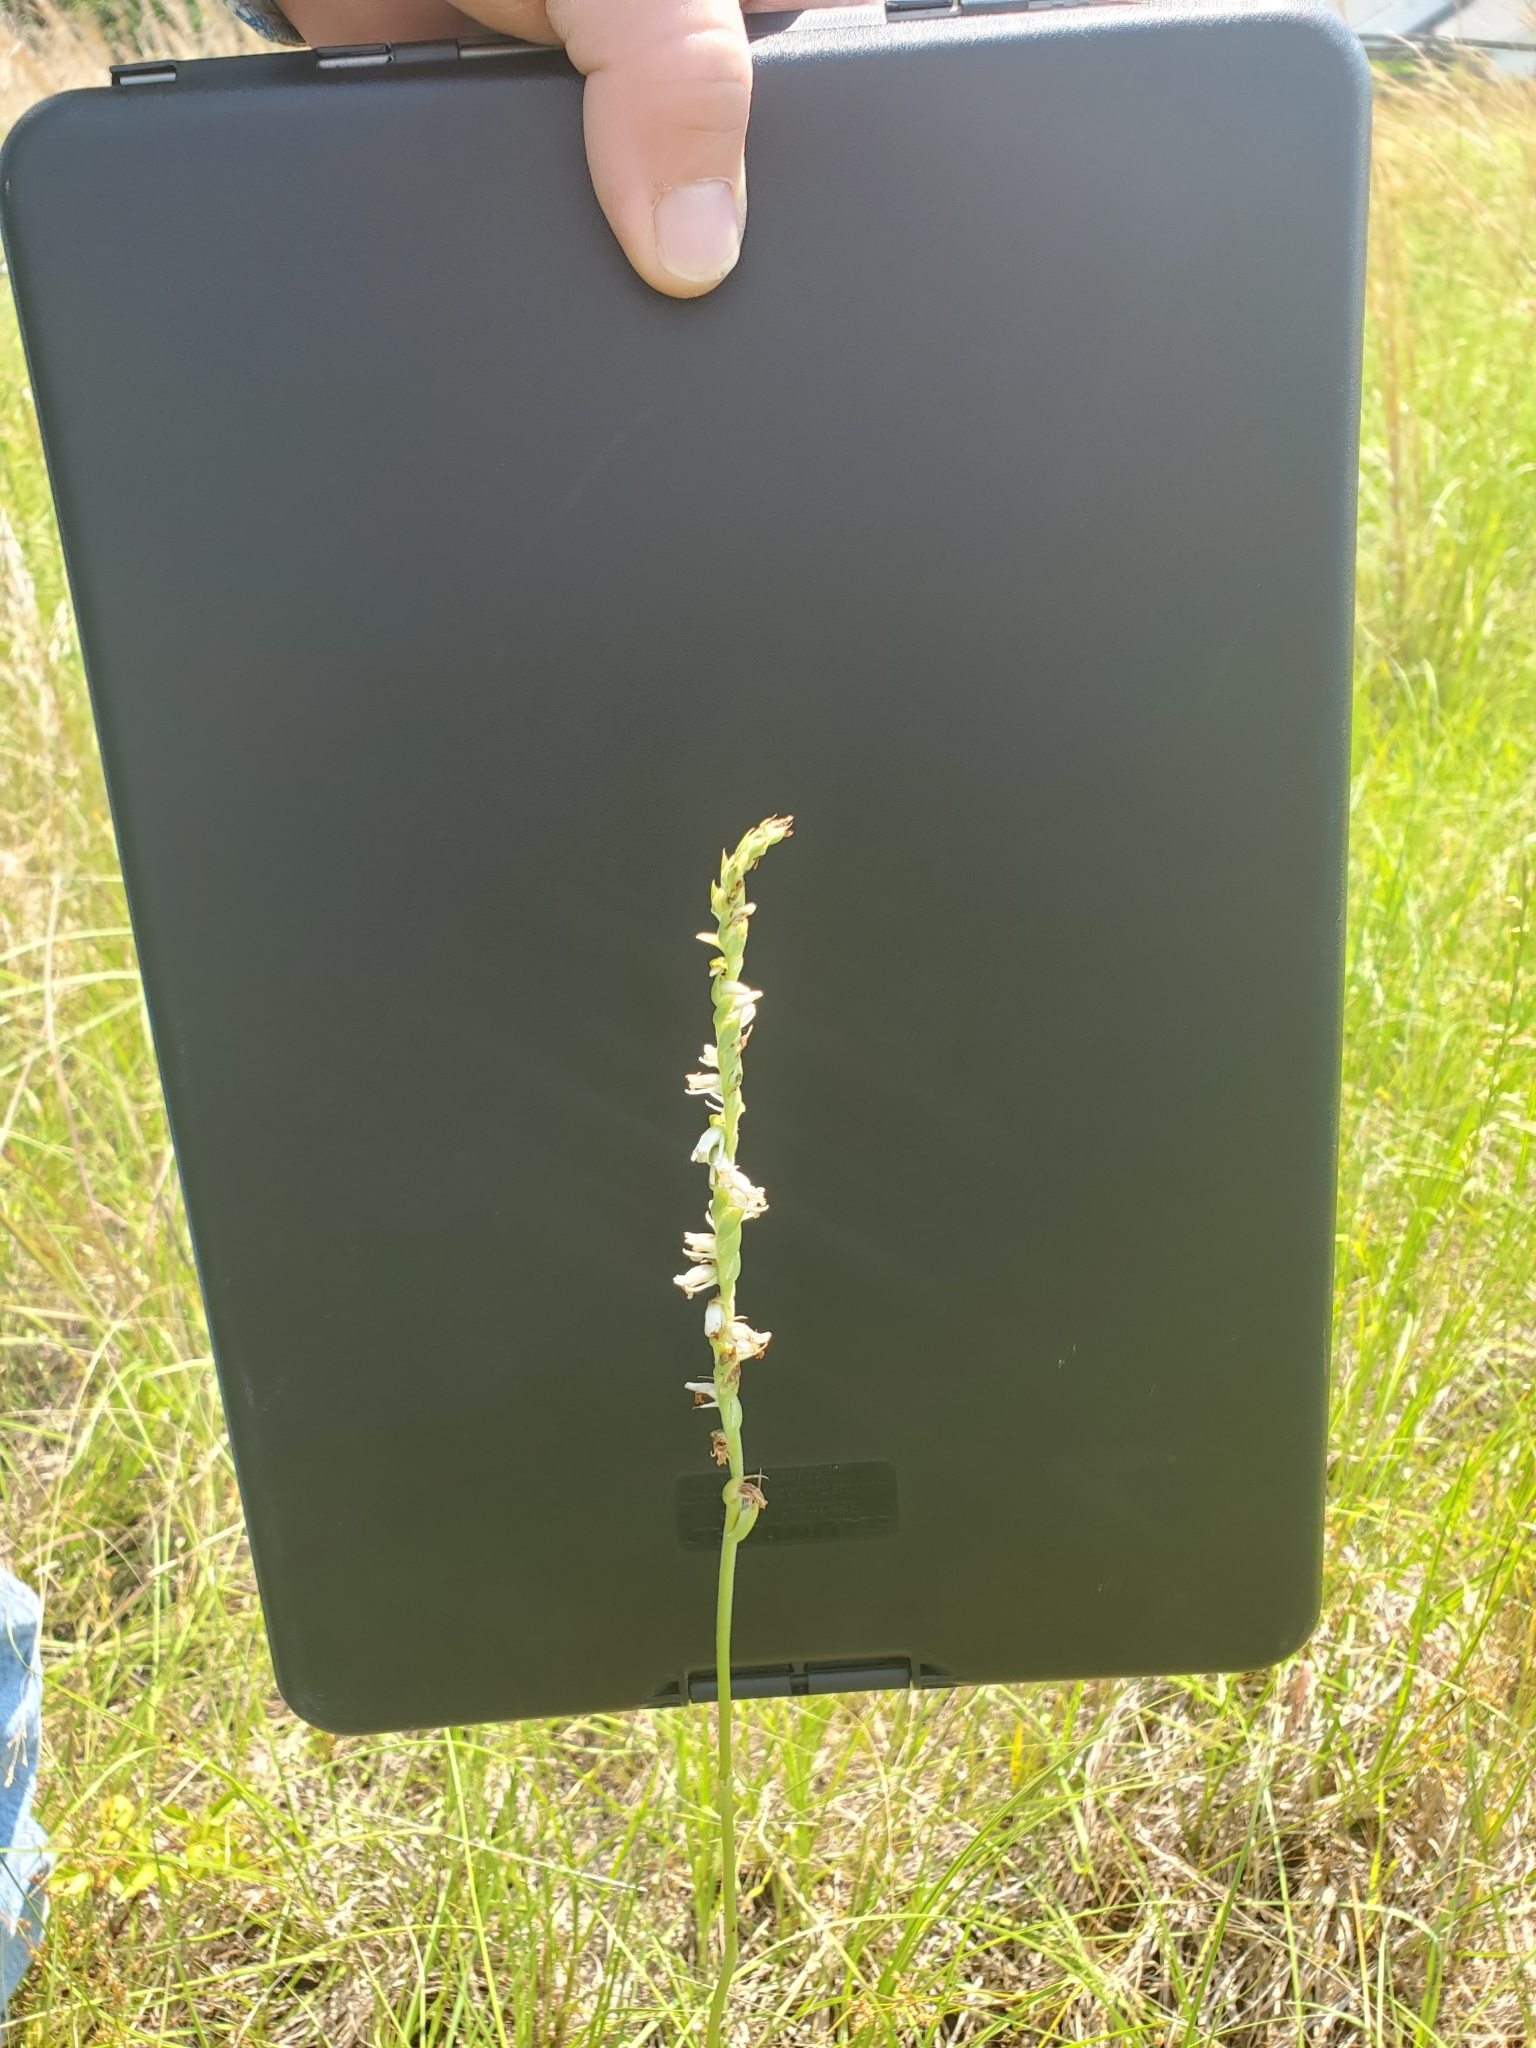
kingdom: Plantae
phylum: Tracheophyta
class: Liliopsida
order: Asparagales
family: Orchidaceae
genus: Spiranthes
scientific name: Spiranthes vernalis
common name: Spring ladies'-tresses
